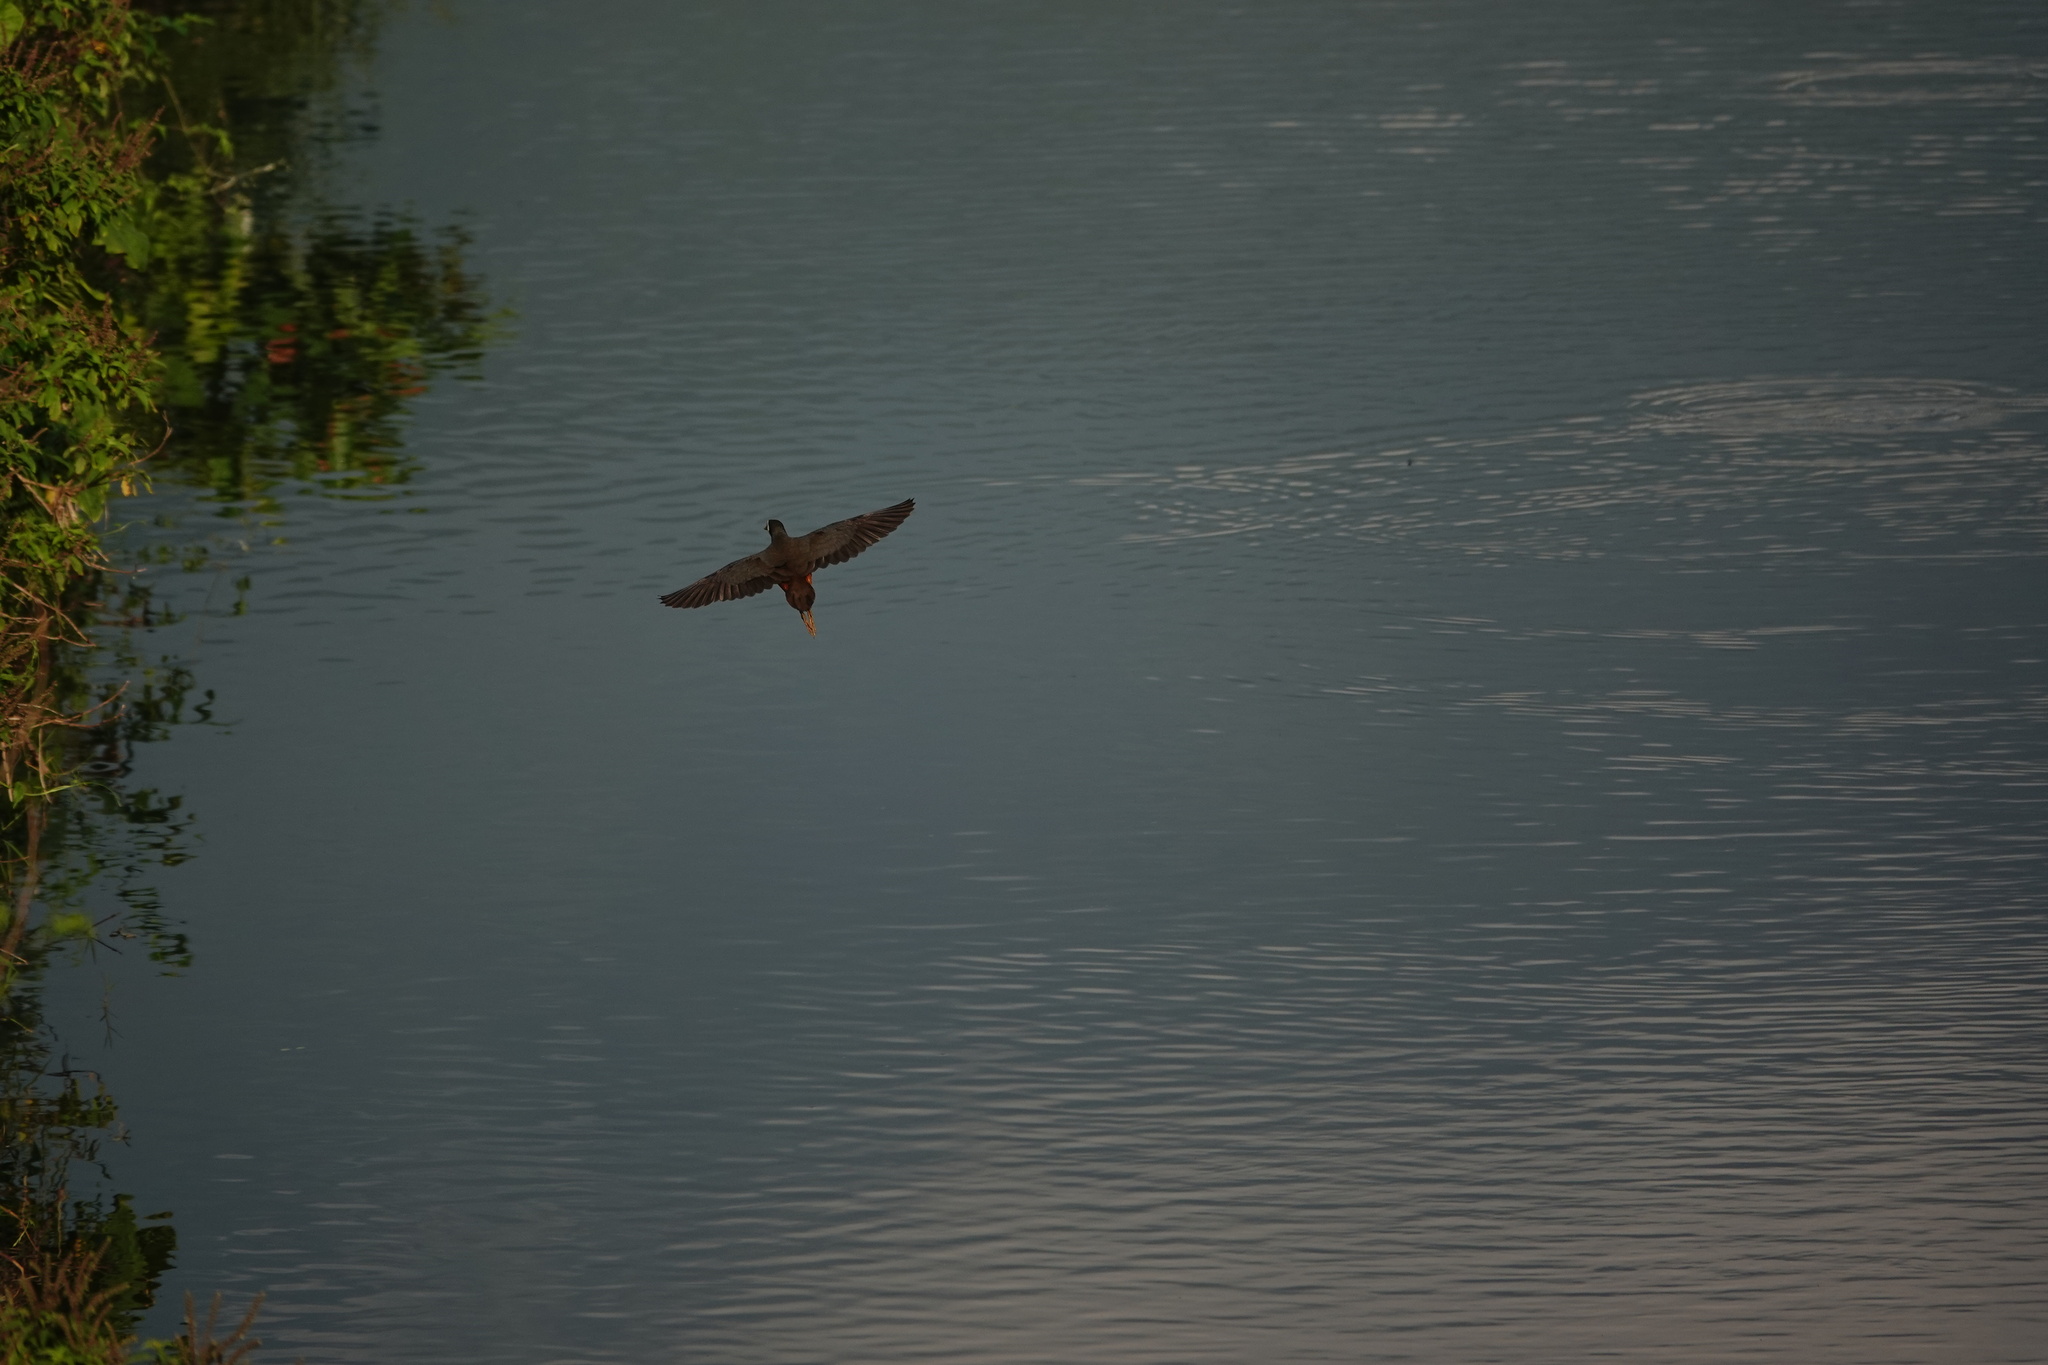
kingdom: Animalia
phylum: Chordata
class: Aves
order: Gruiformes
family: Rallidae
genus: Amaurornis
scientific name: Amaurornis phoenicurus
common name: White-breasted waterhen
